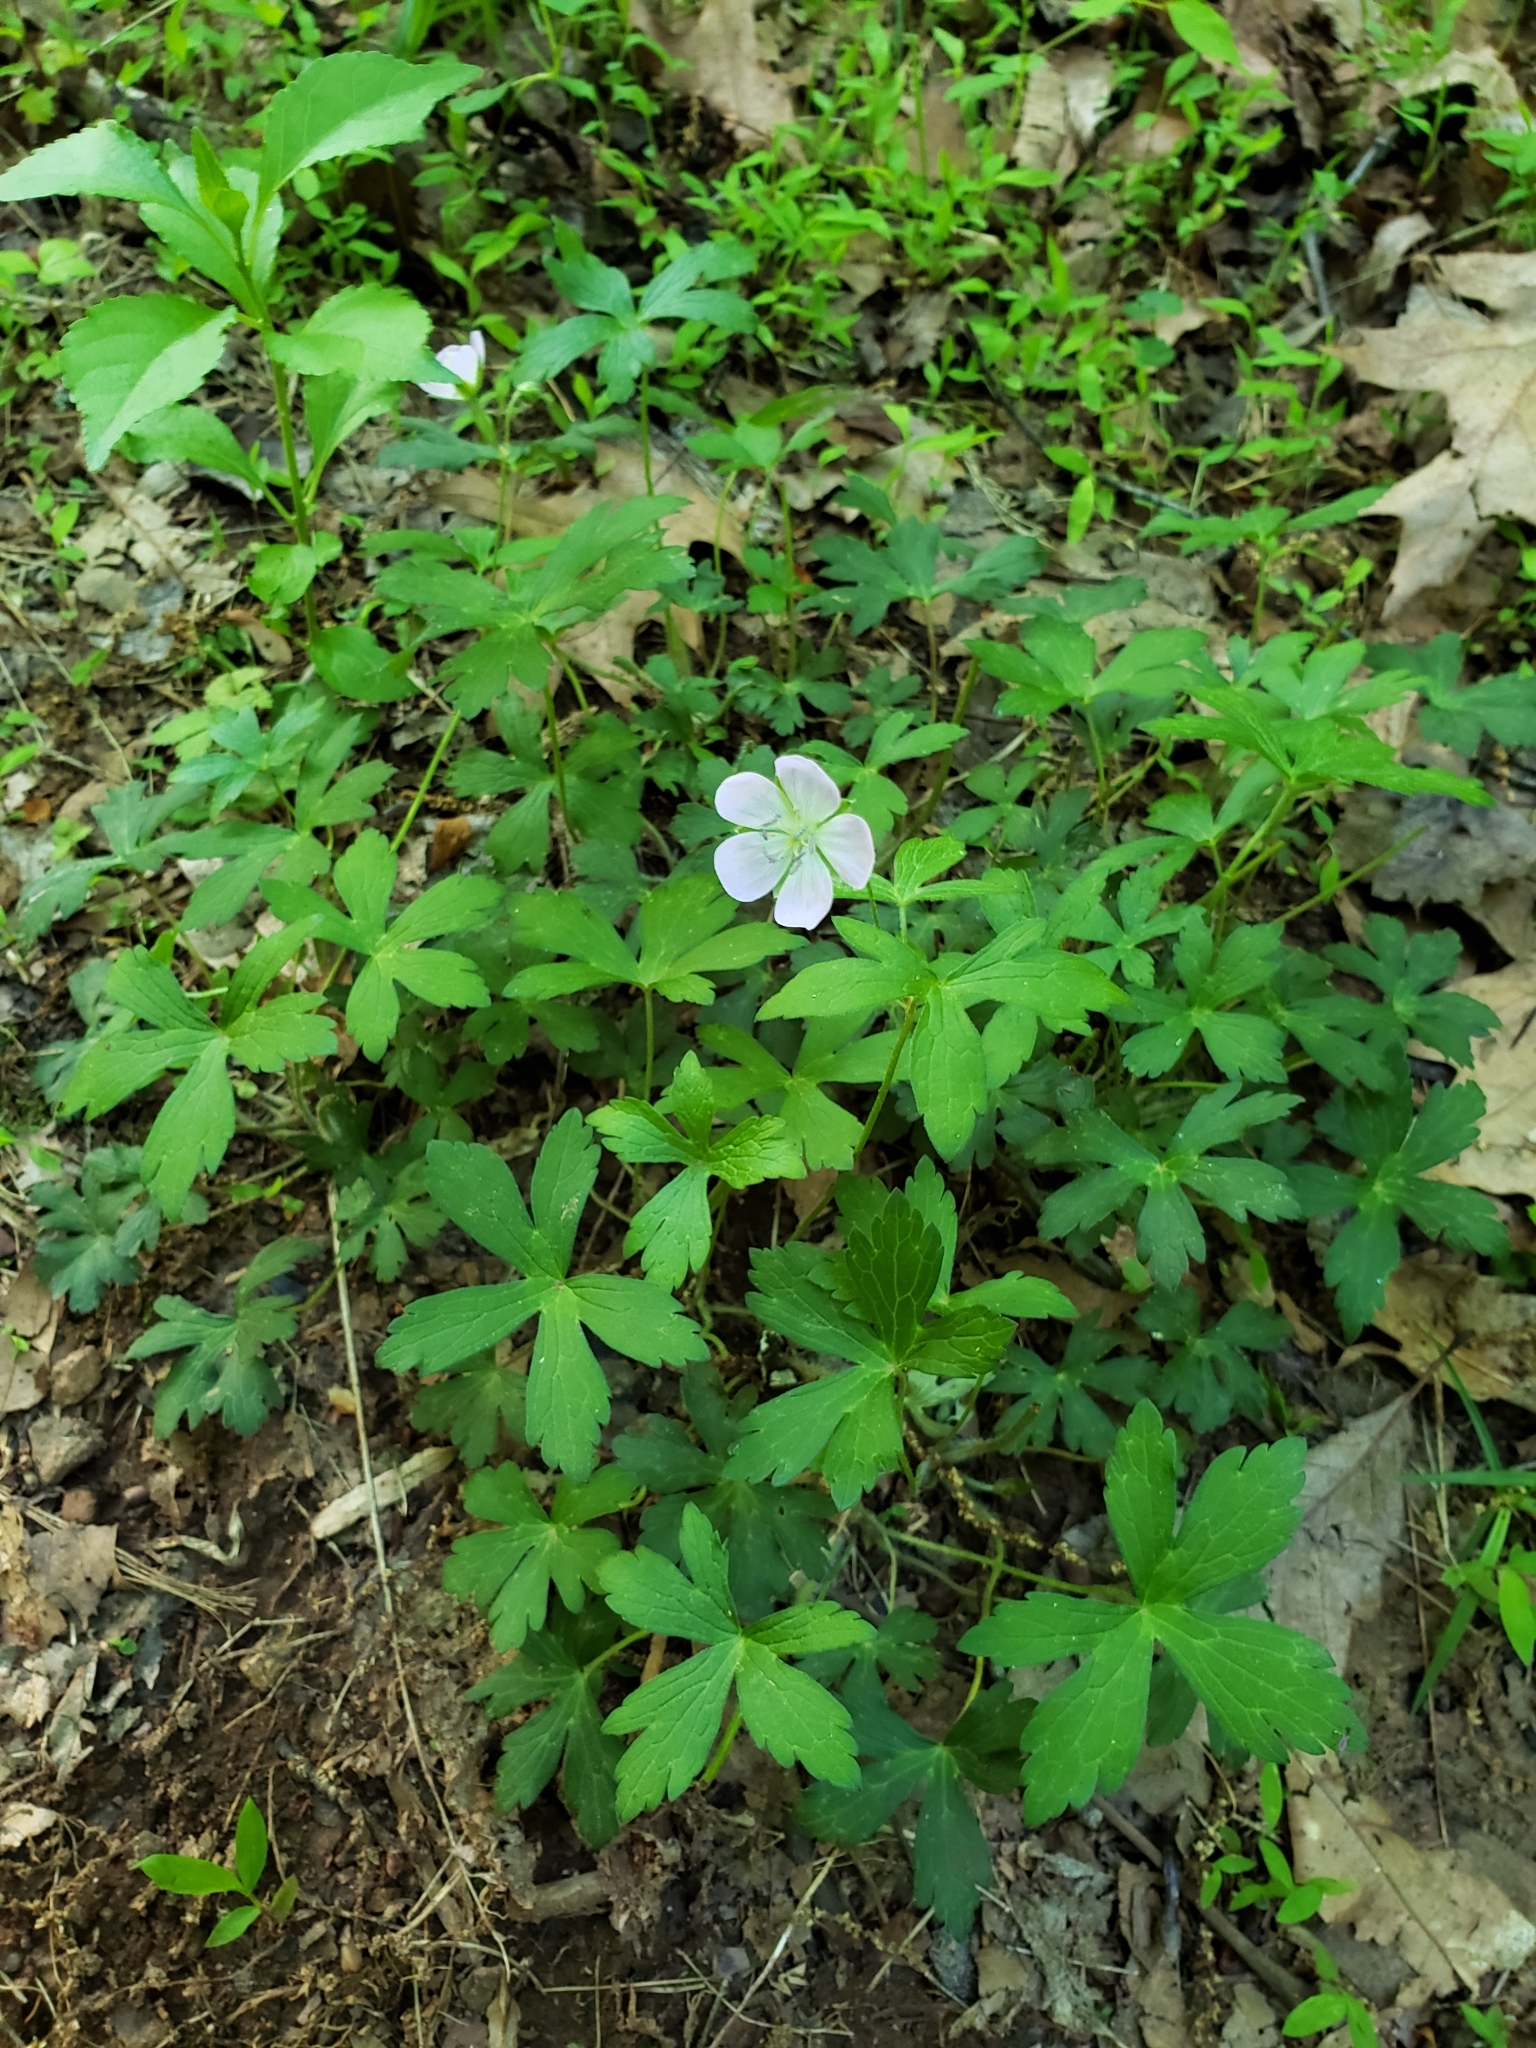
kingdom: Plantae
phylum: Tracheophyta
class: Magnoliopsida
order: Geraniales
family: Geraniaceae
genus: Geranium
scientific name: Geranium maculatum
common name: Spotted geranium
